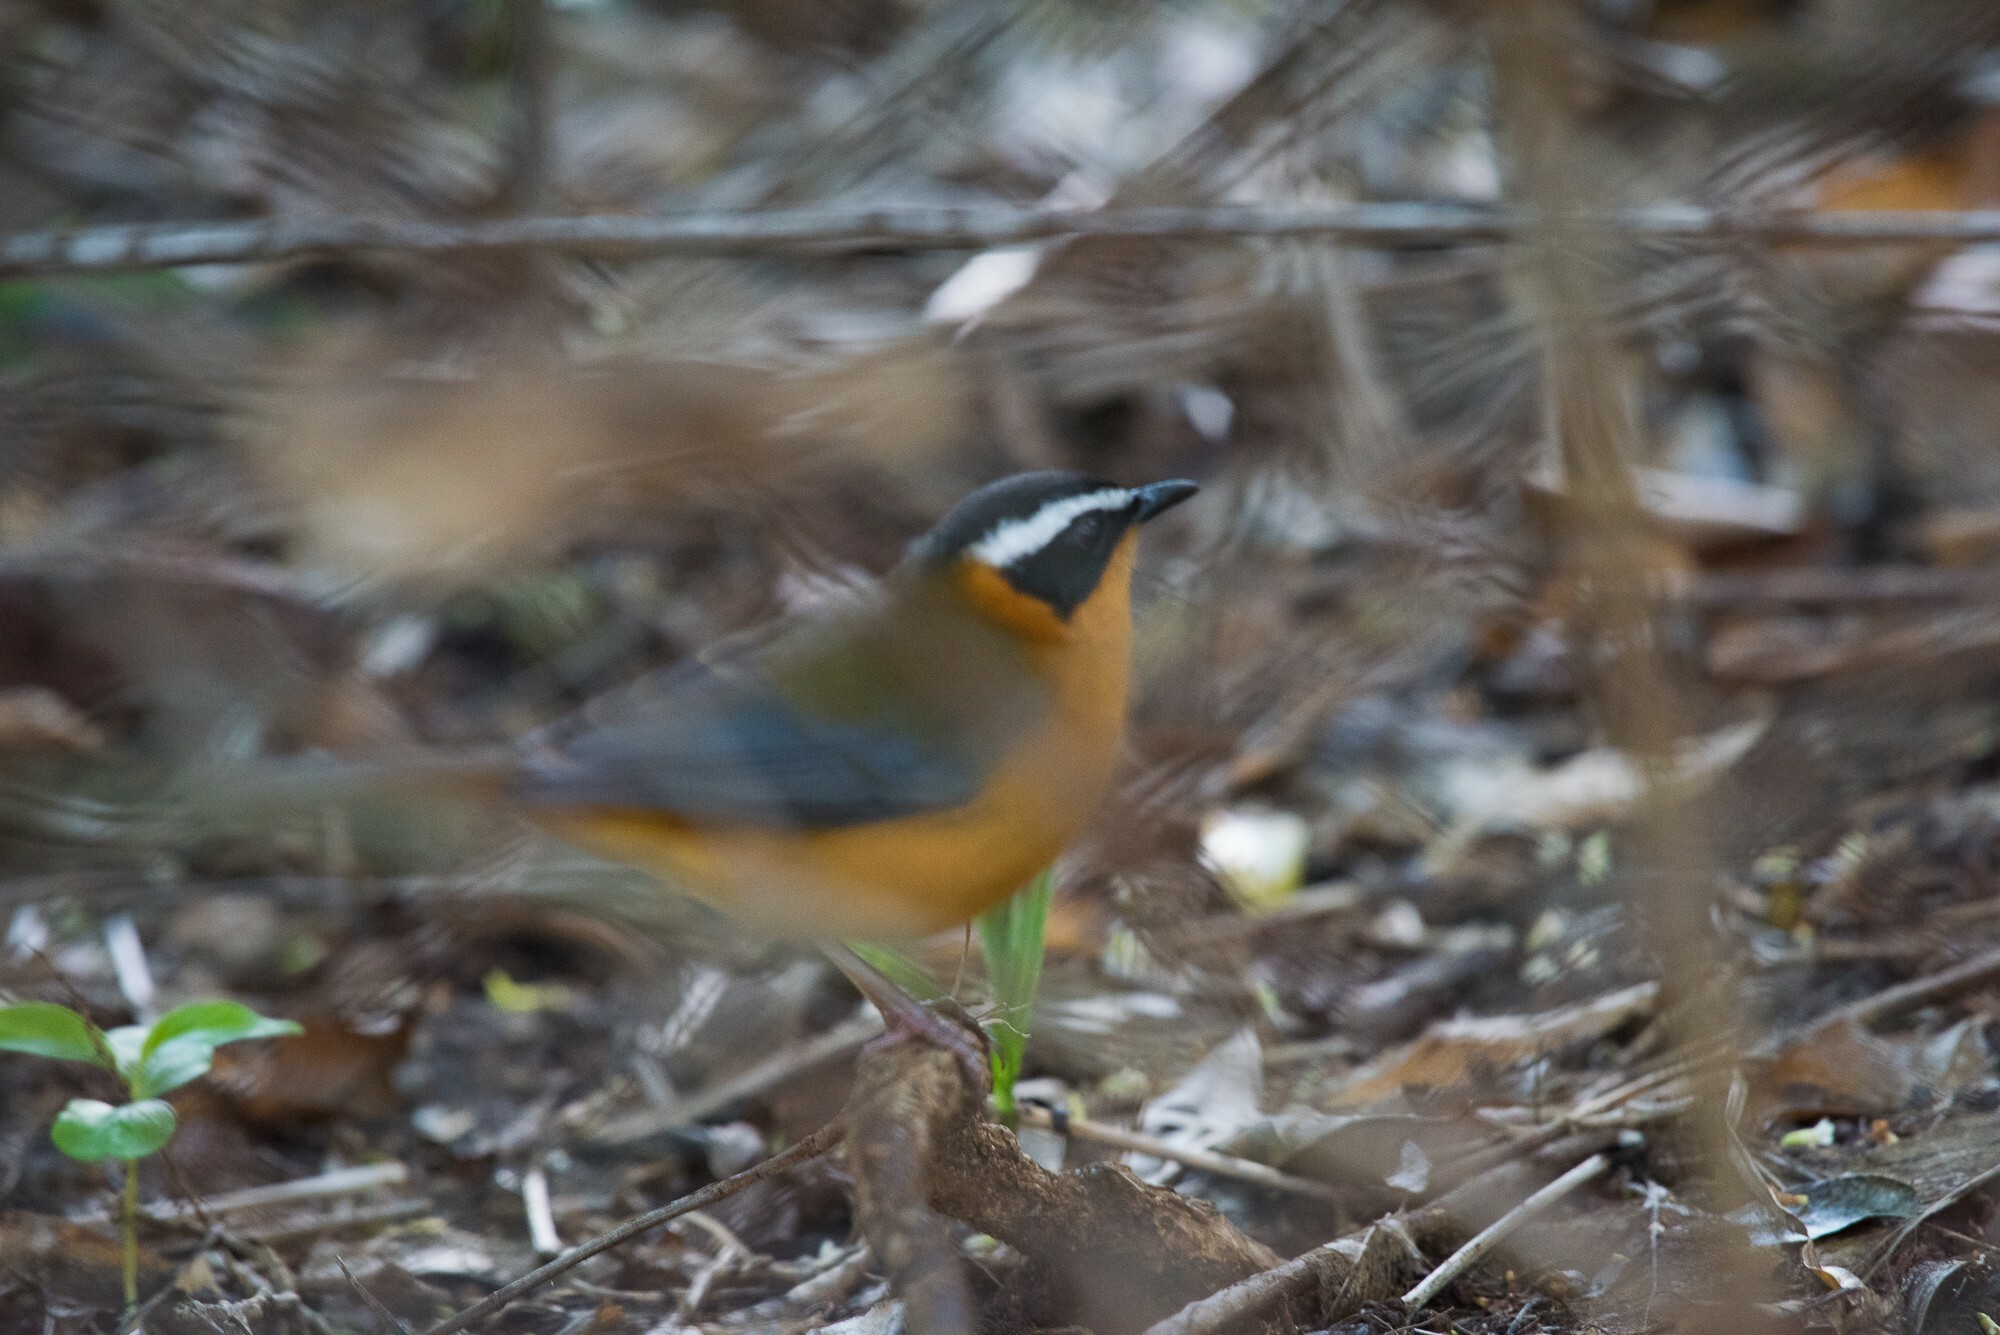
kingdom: Animalia
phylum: Chordata
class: Aves
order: Passeriformes
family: Muscicapidae
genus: Cossypha
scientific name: Cossypha heuglini
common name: White-browed robin-chat
